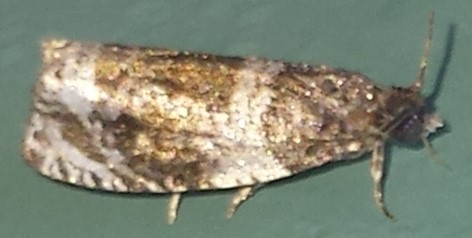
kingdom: Animalia
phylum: Arthropoda
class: Insecta
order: Lepidoptera
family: Tortricidae
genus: Olethreutes
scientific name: Olethreutes fasciatana
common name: Banded olethreutes moth
